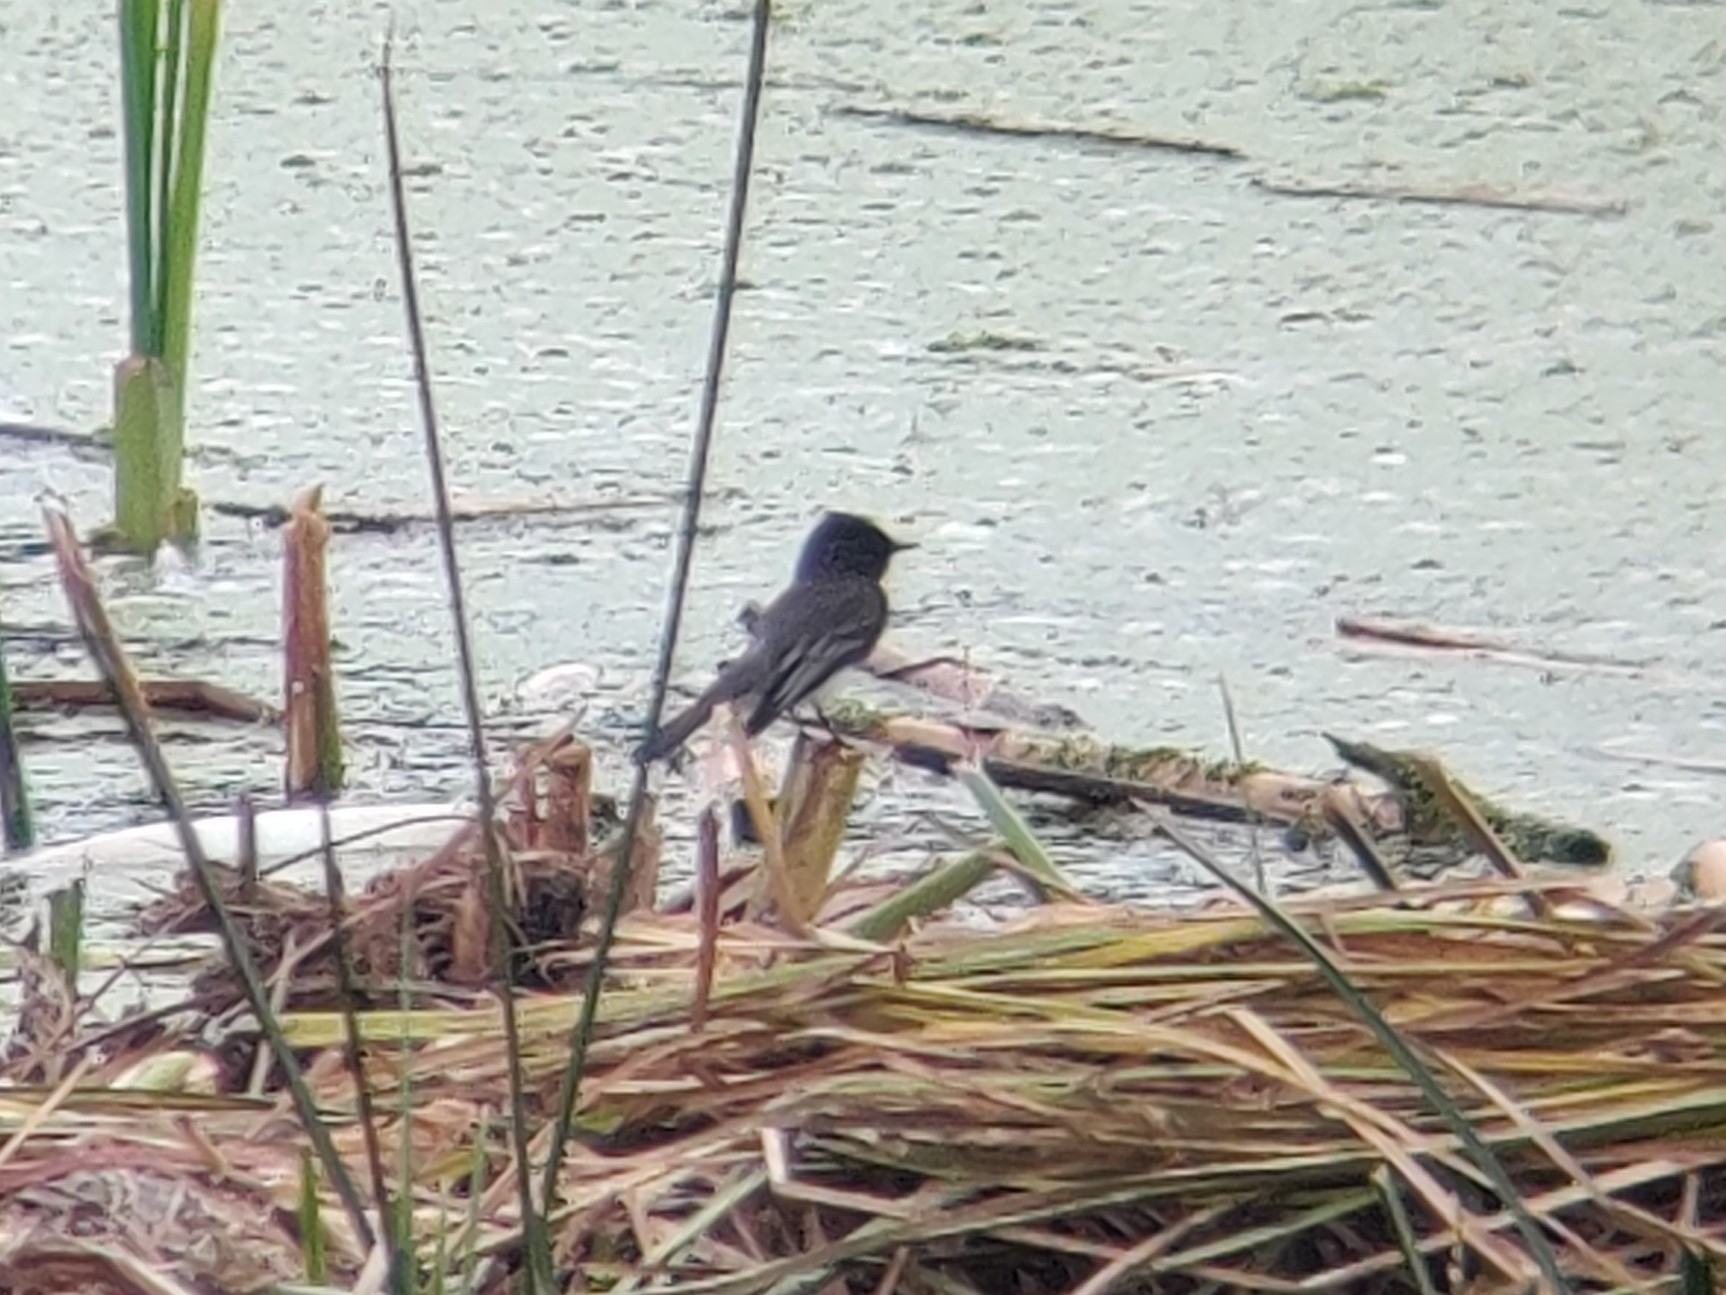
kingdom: Animalia
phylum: Chordata
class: Aves
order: Passeriformes
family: Tyrannidae
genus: Sayornis
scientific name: Sayornis nigricans
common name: Black phoebe
